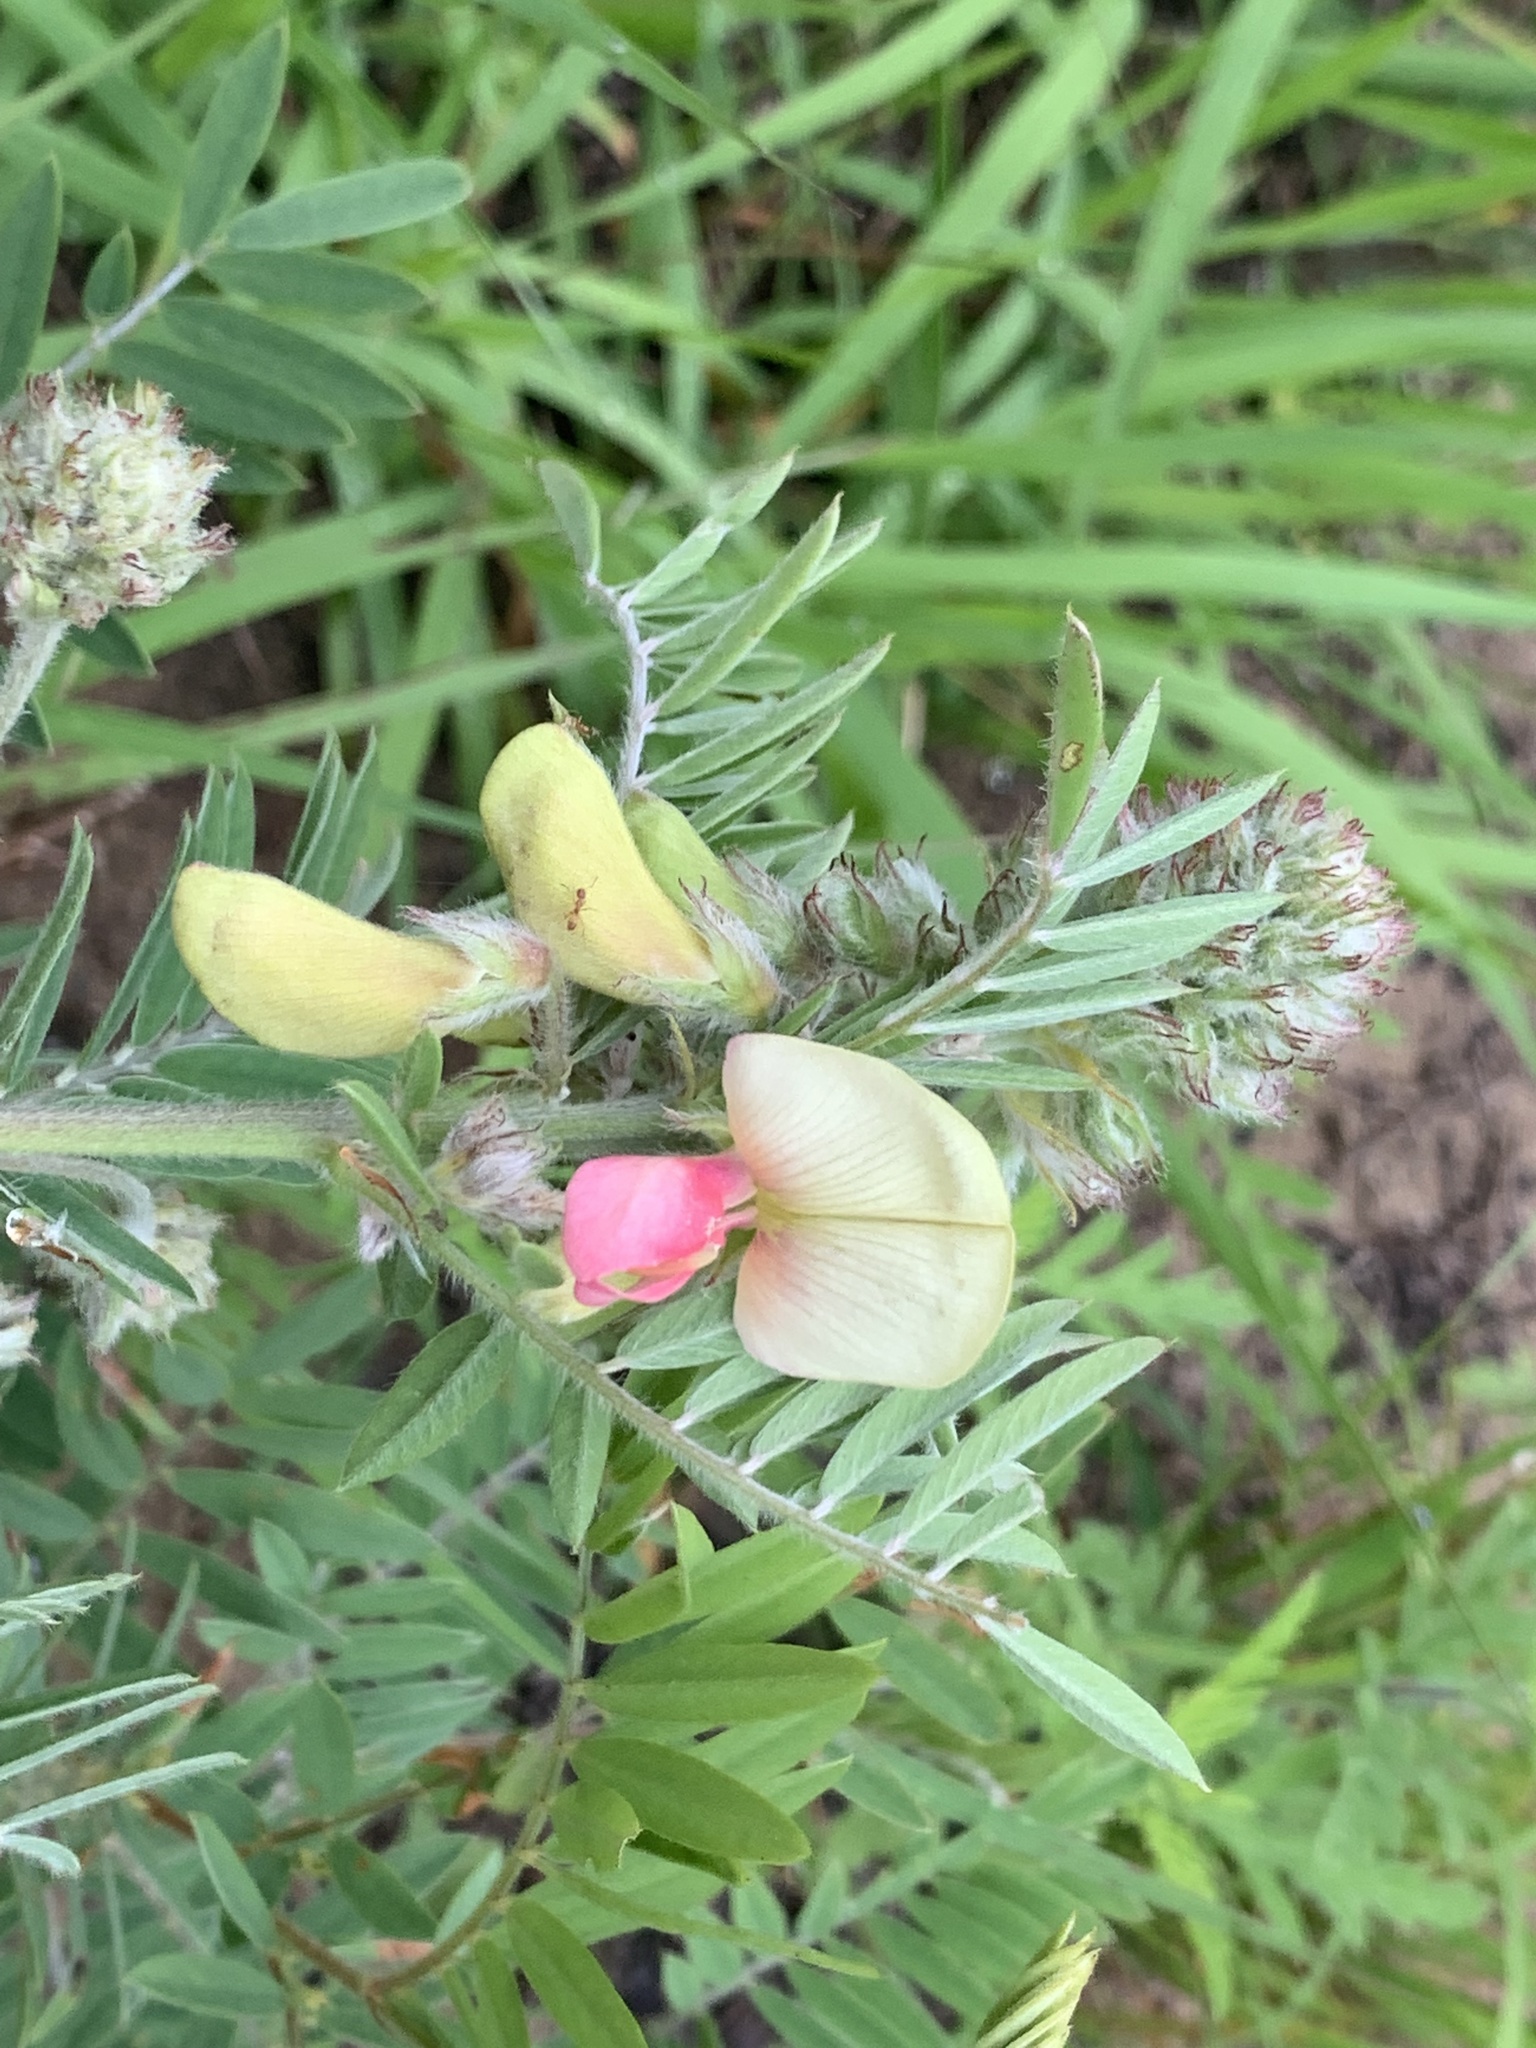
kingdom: Plantae
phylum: Tracheophyta
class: Magnoliopsida
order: Fabales
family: Fabaceae
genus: Tephrosia
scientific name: Tephrosia virginiana
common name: Rabbit-pea
